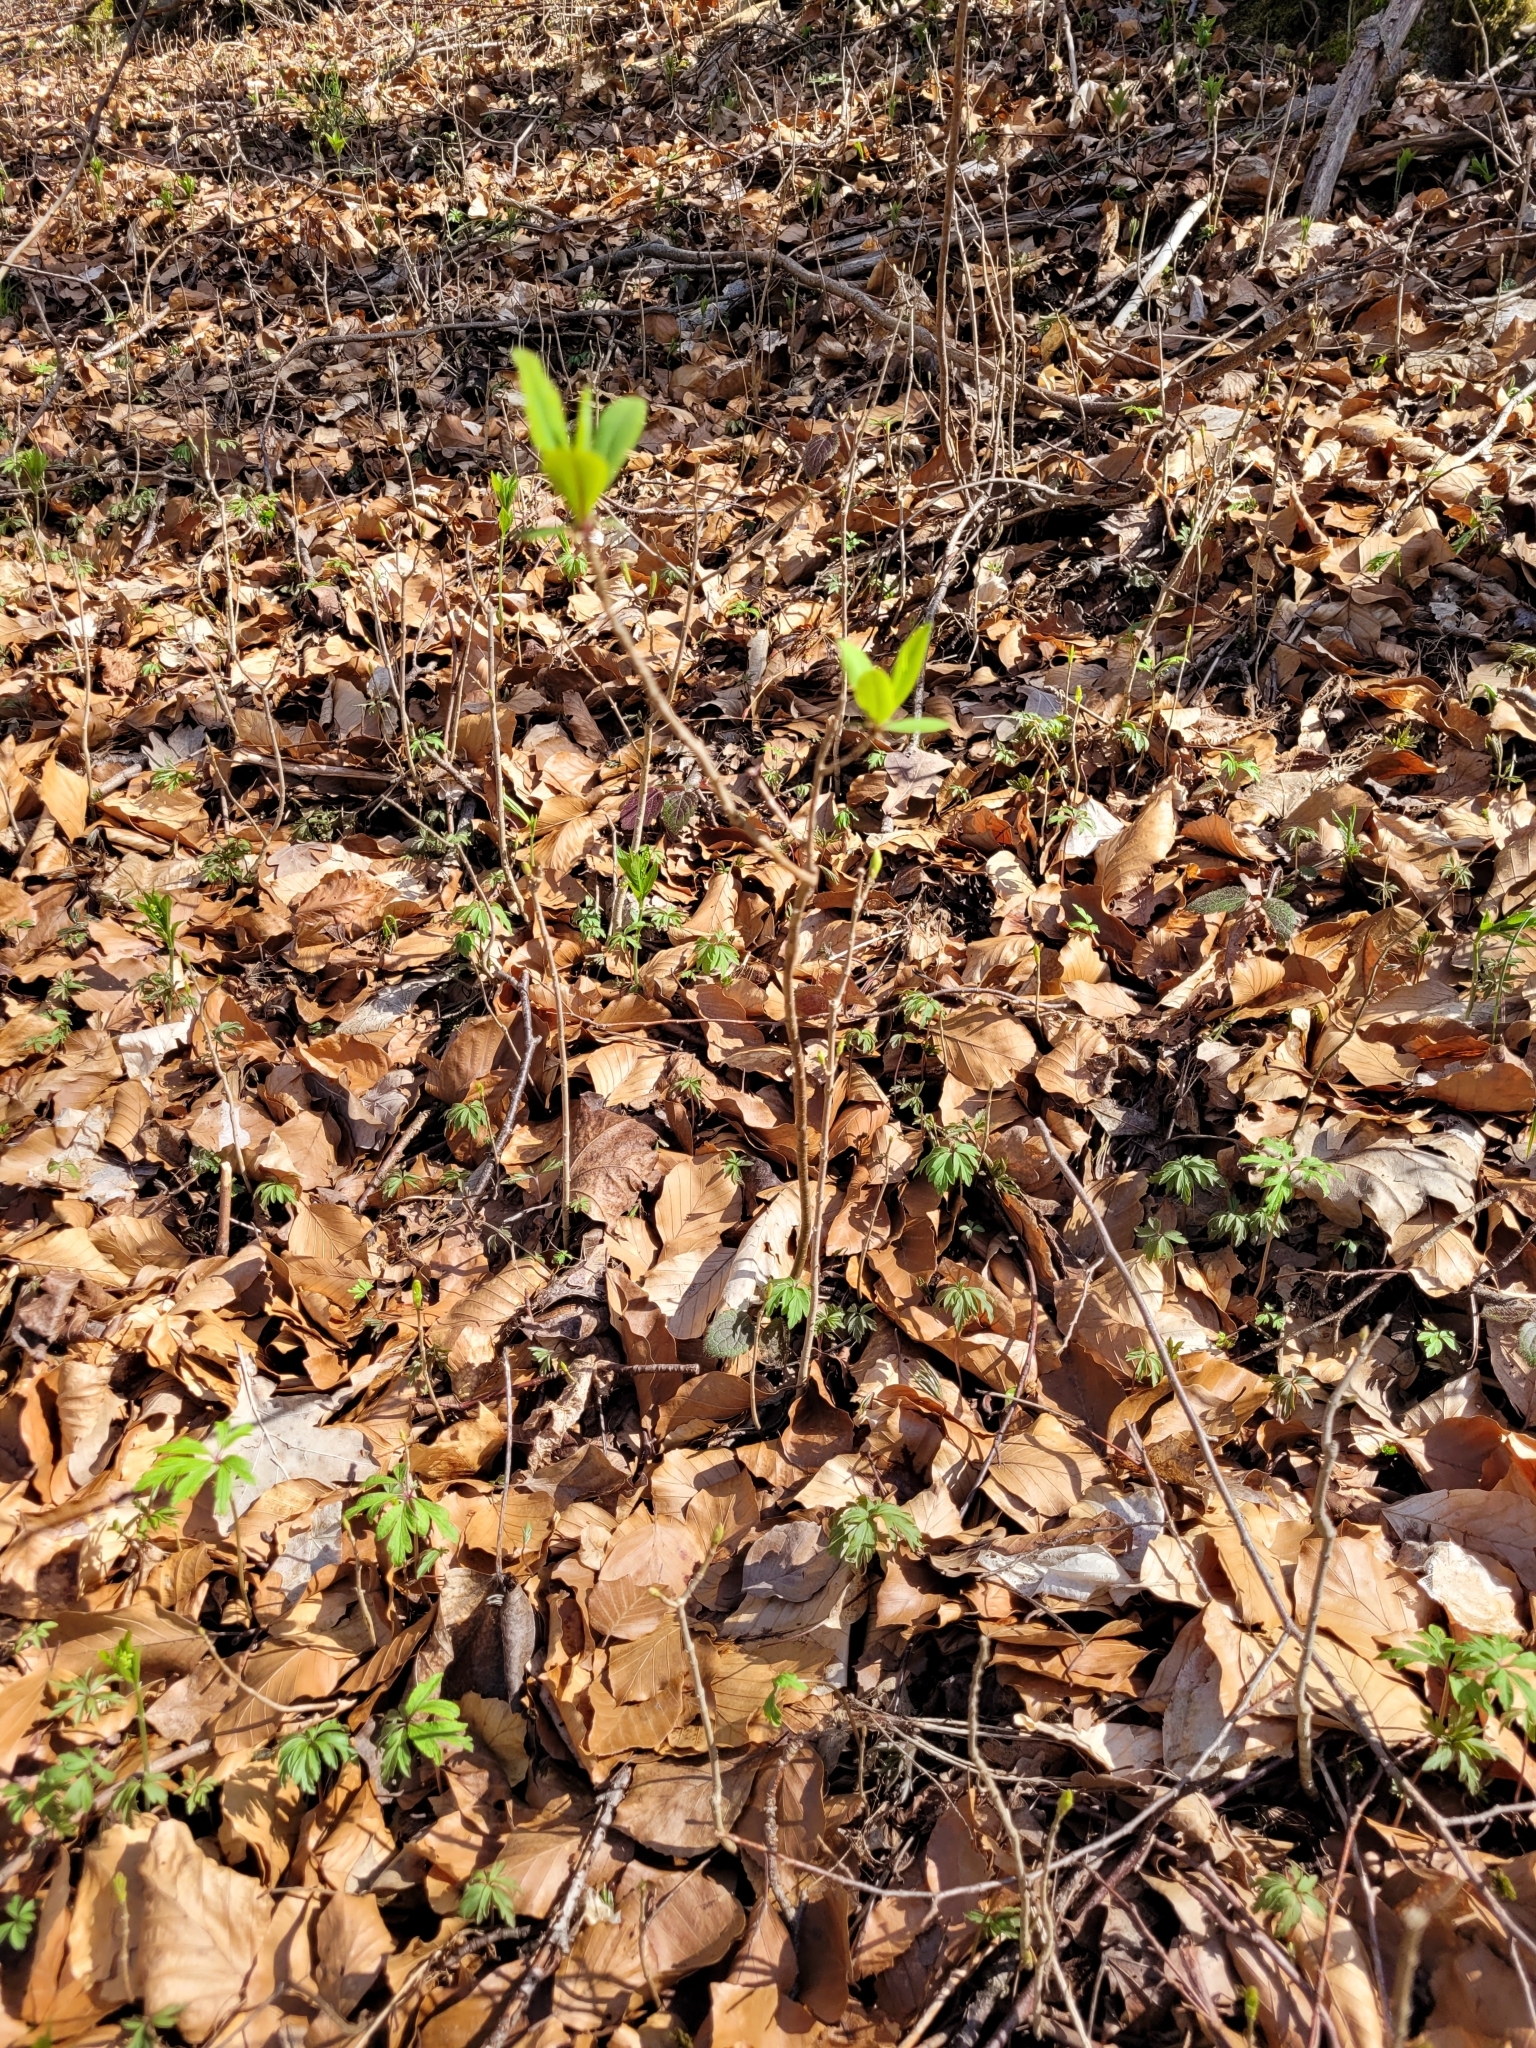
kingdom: Plantae
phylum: Tracheophyta
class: Magnoliopsida
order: Malvales
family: Thymelaeaceae
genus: Daphne
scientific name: Daphne mezereum
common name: Mezereon
